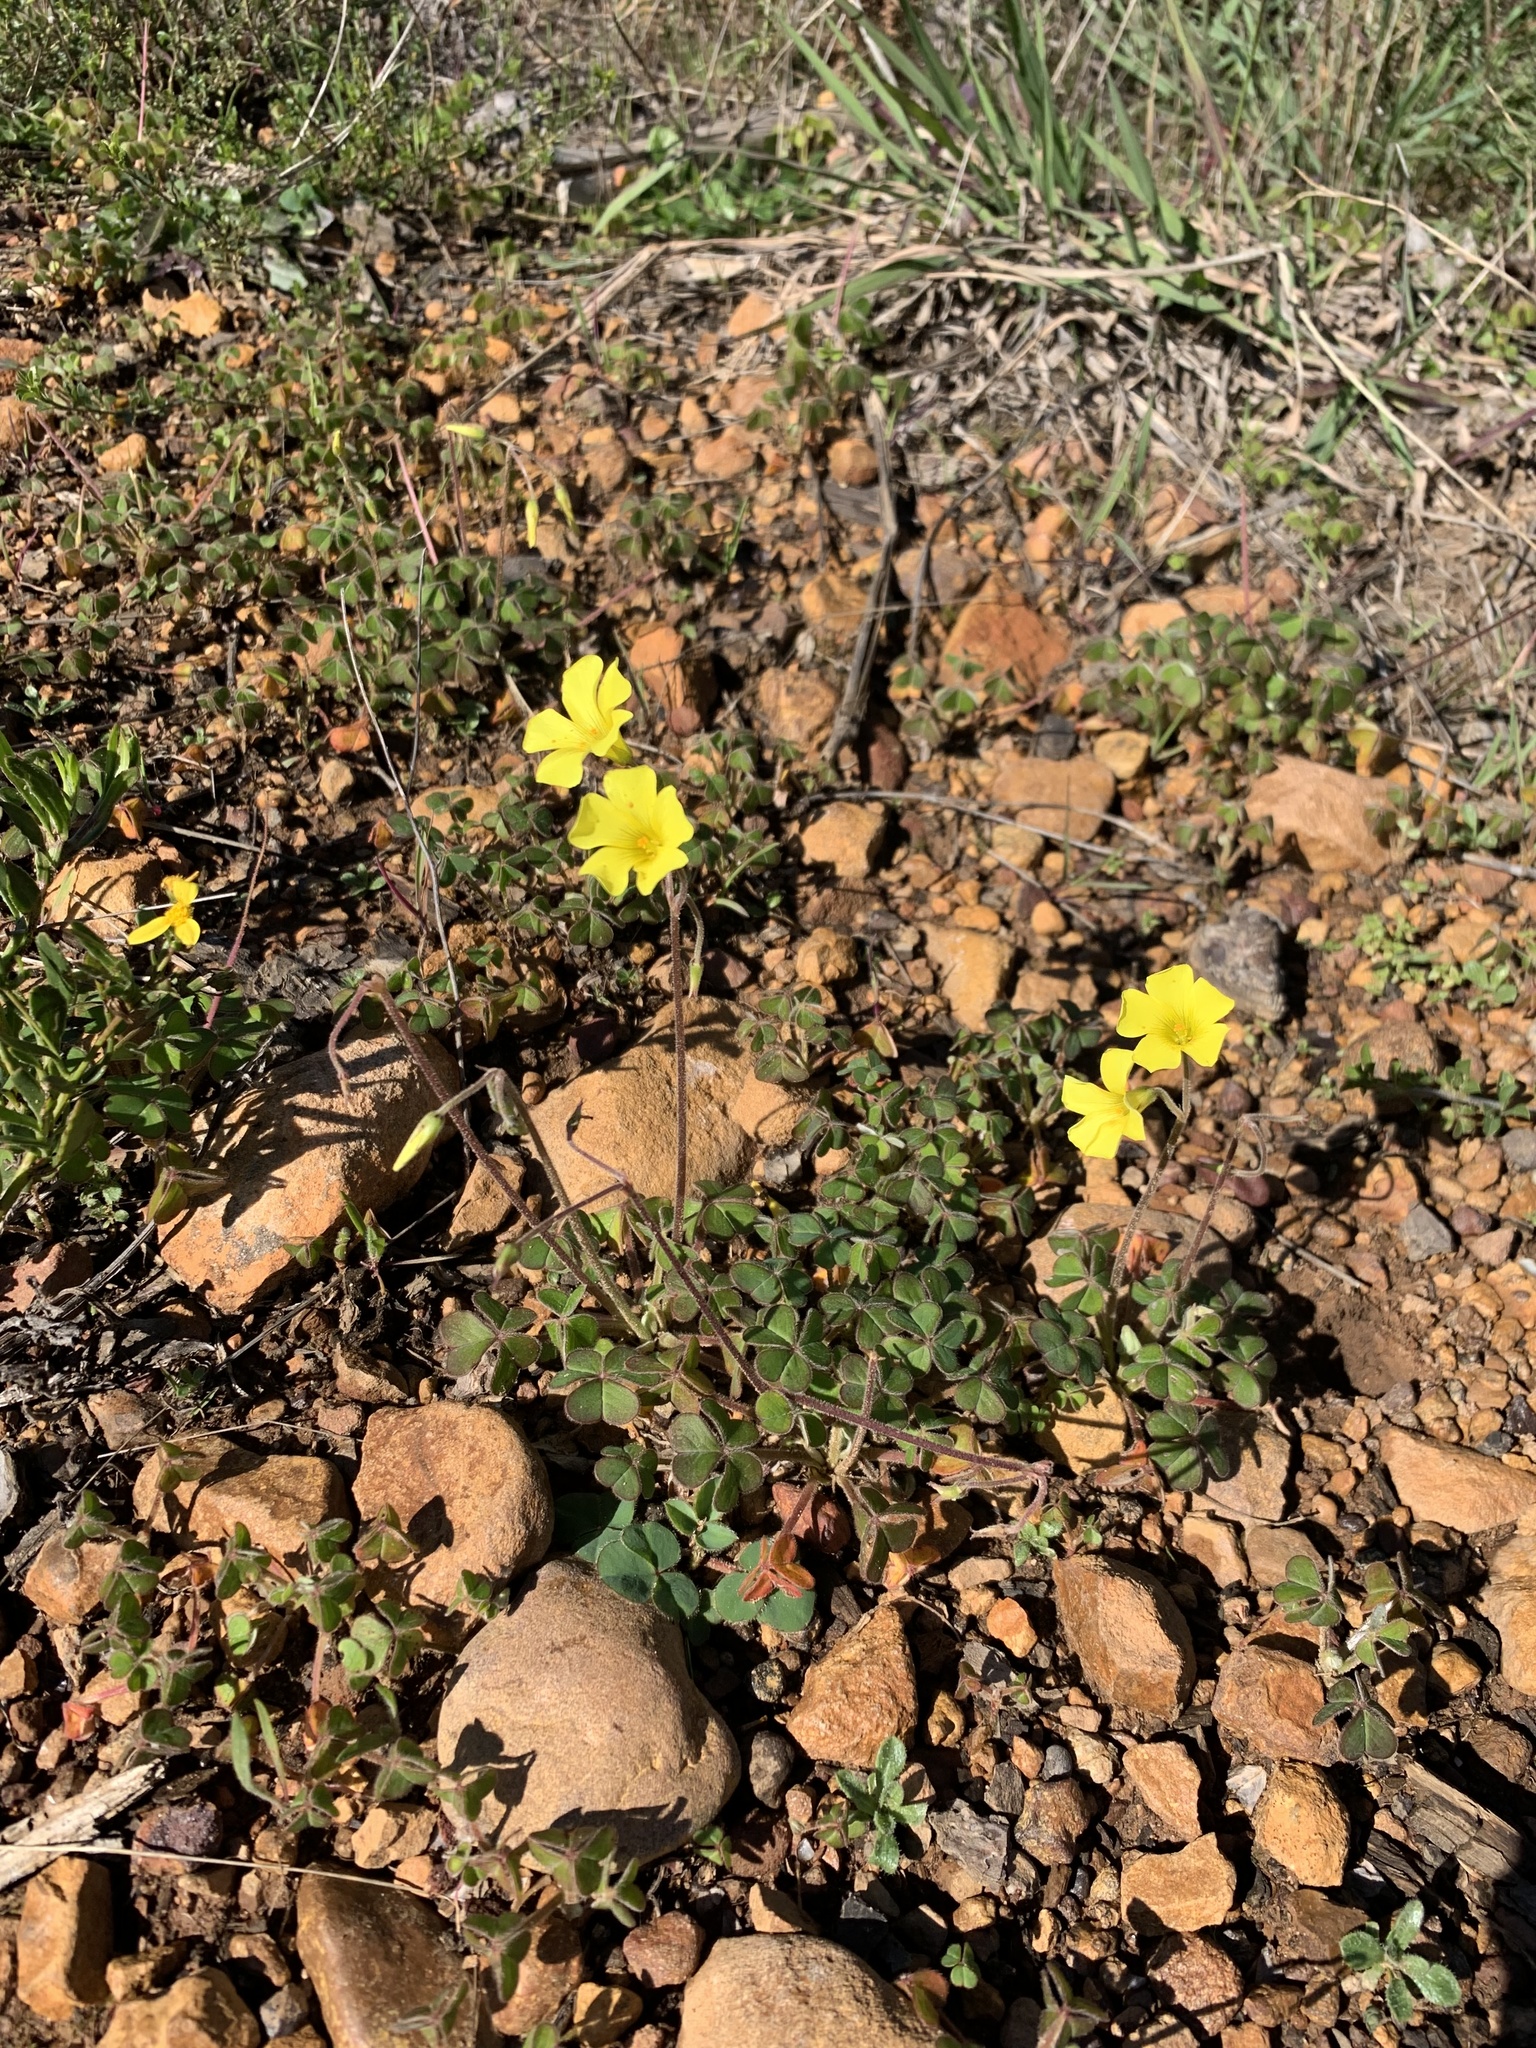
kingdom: Plantae
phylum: Tracheophyta
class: Magnoliopsida
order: Oxalidales
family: Oxalidaceae
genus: Oxalis
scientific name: Oxalis pes-caprae
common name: Bermuda-buttercup
